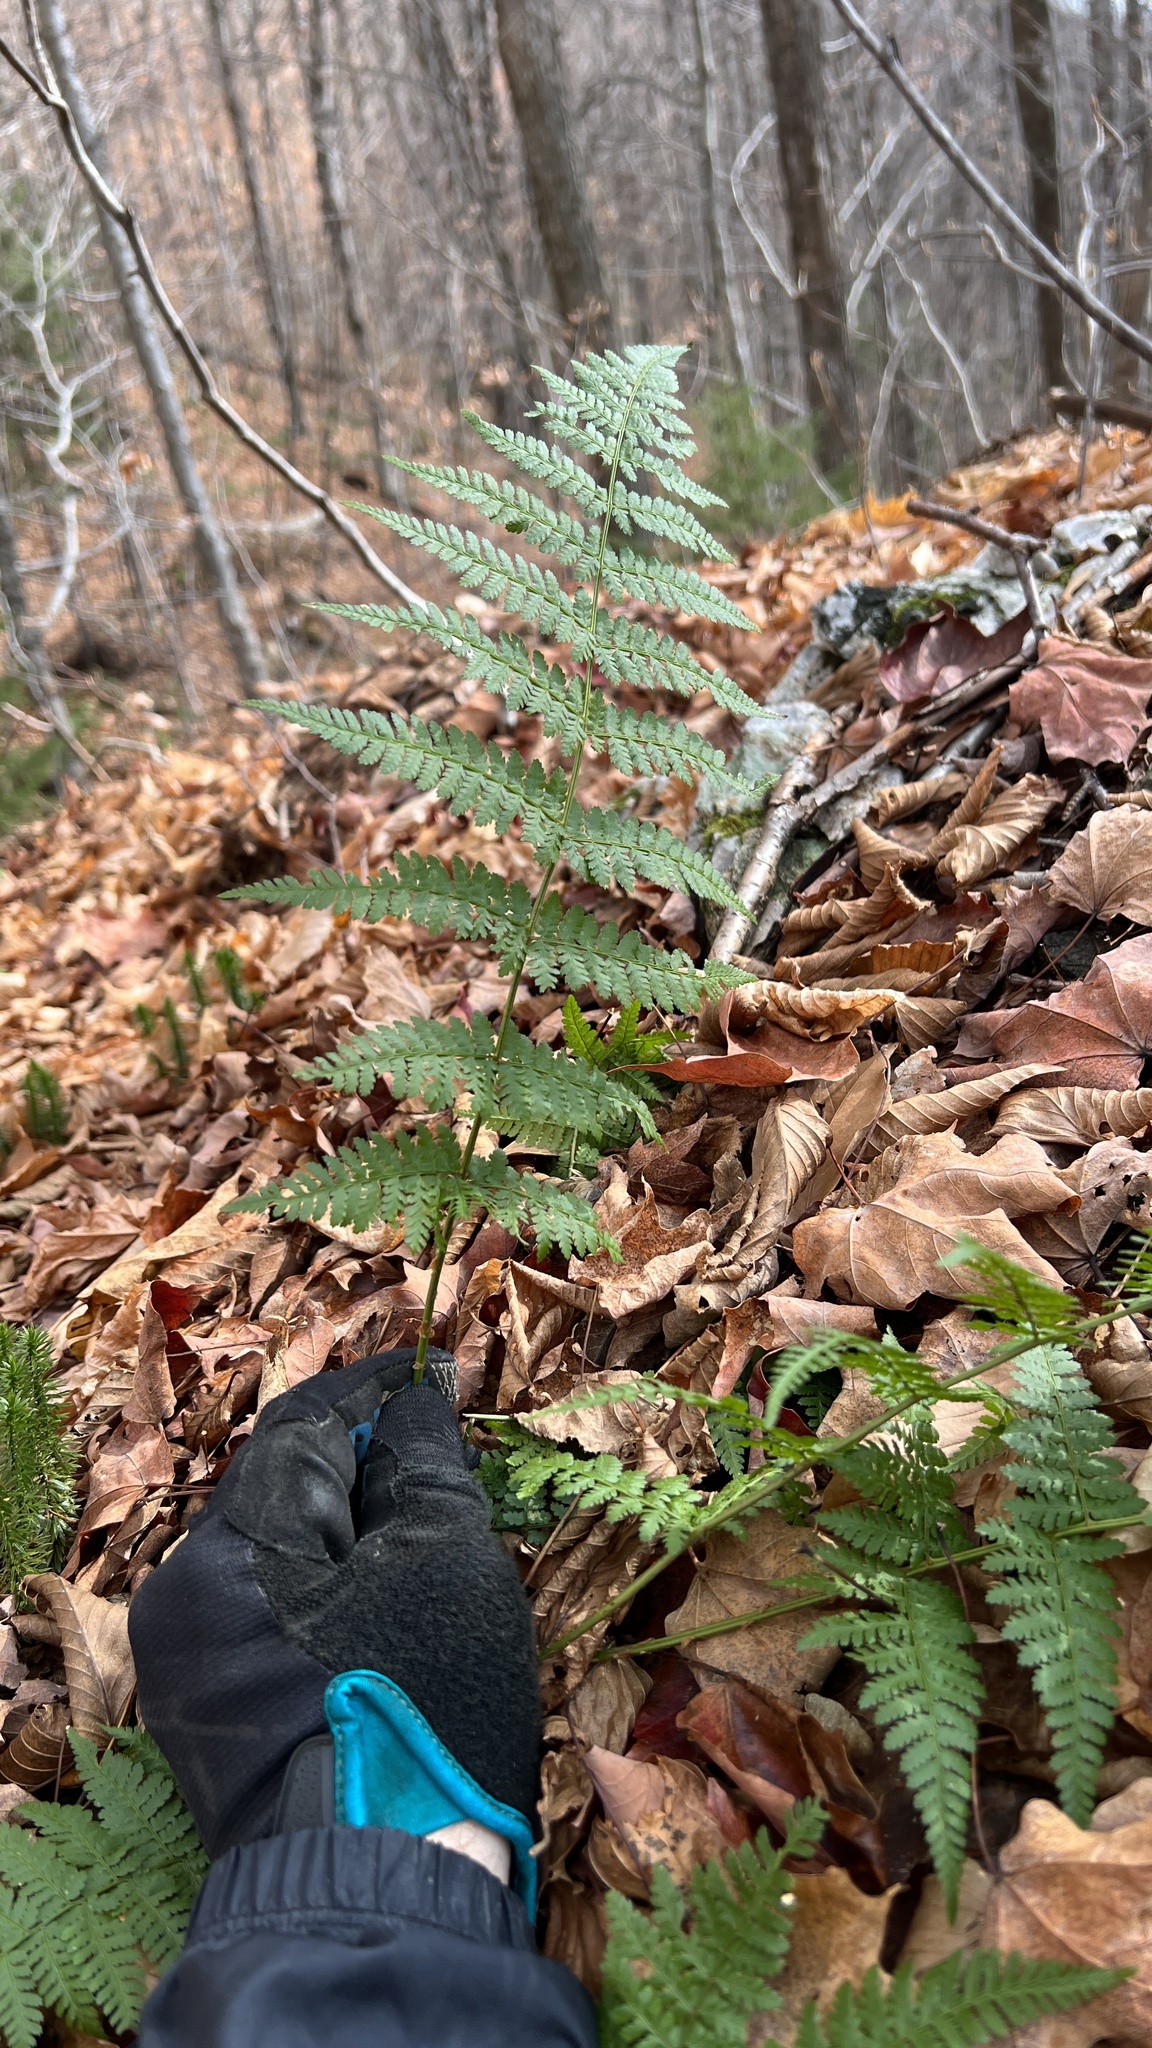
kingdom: Plantae
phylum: Tracheophyta
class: Polypodiopsida
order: Polypodiales
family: Dryopteridaceae
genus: Dryopteris
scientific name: Dryopteris intermedia
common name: Evergreen wood fern
